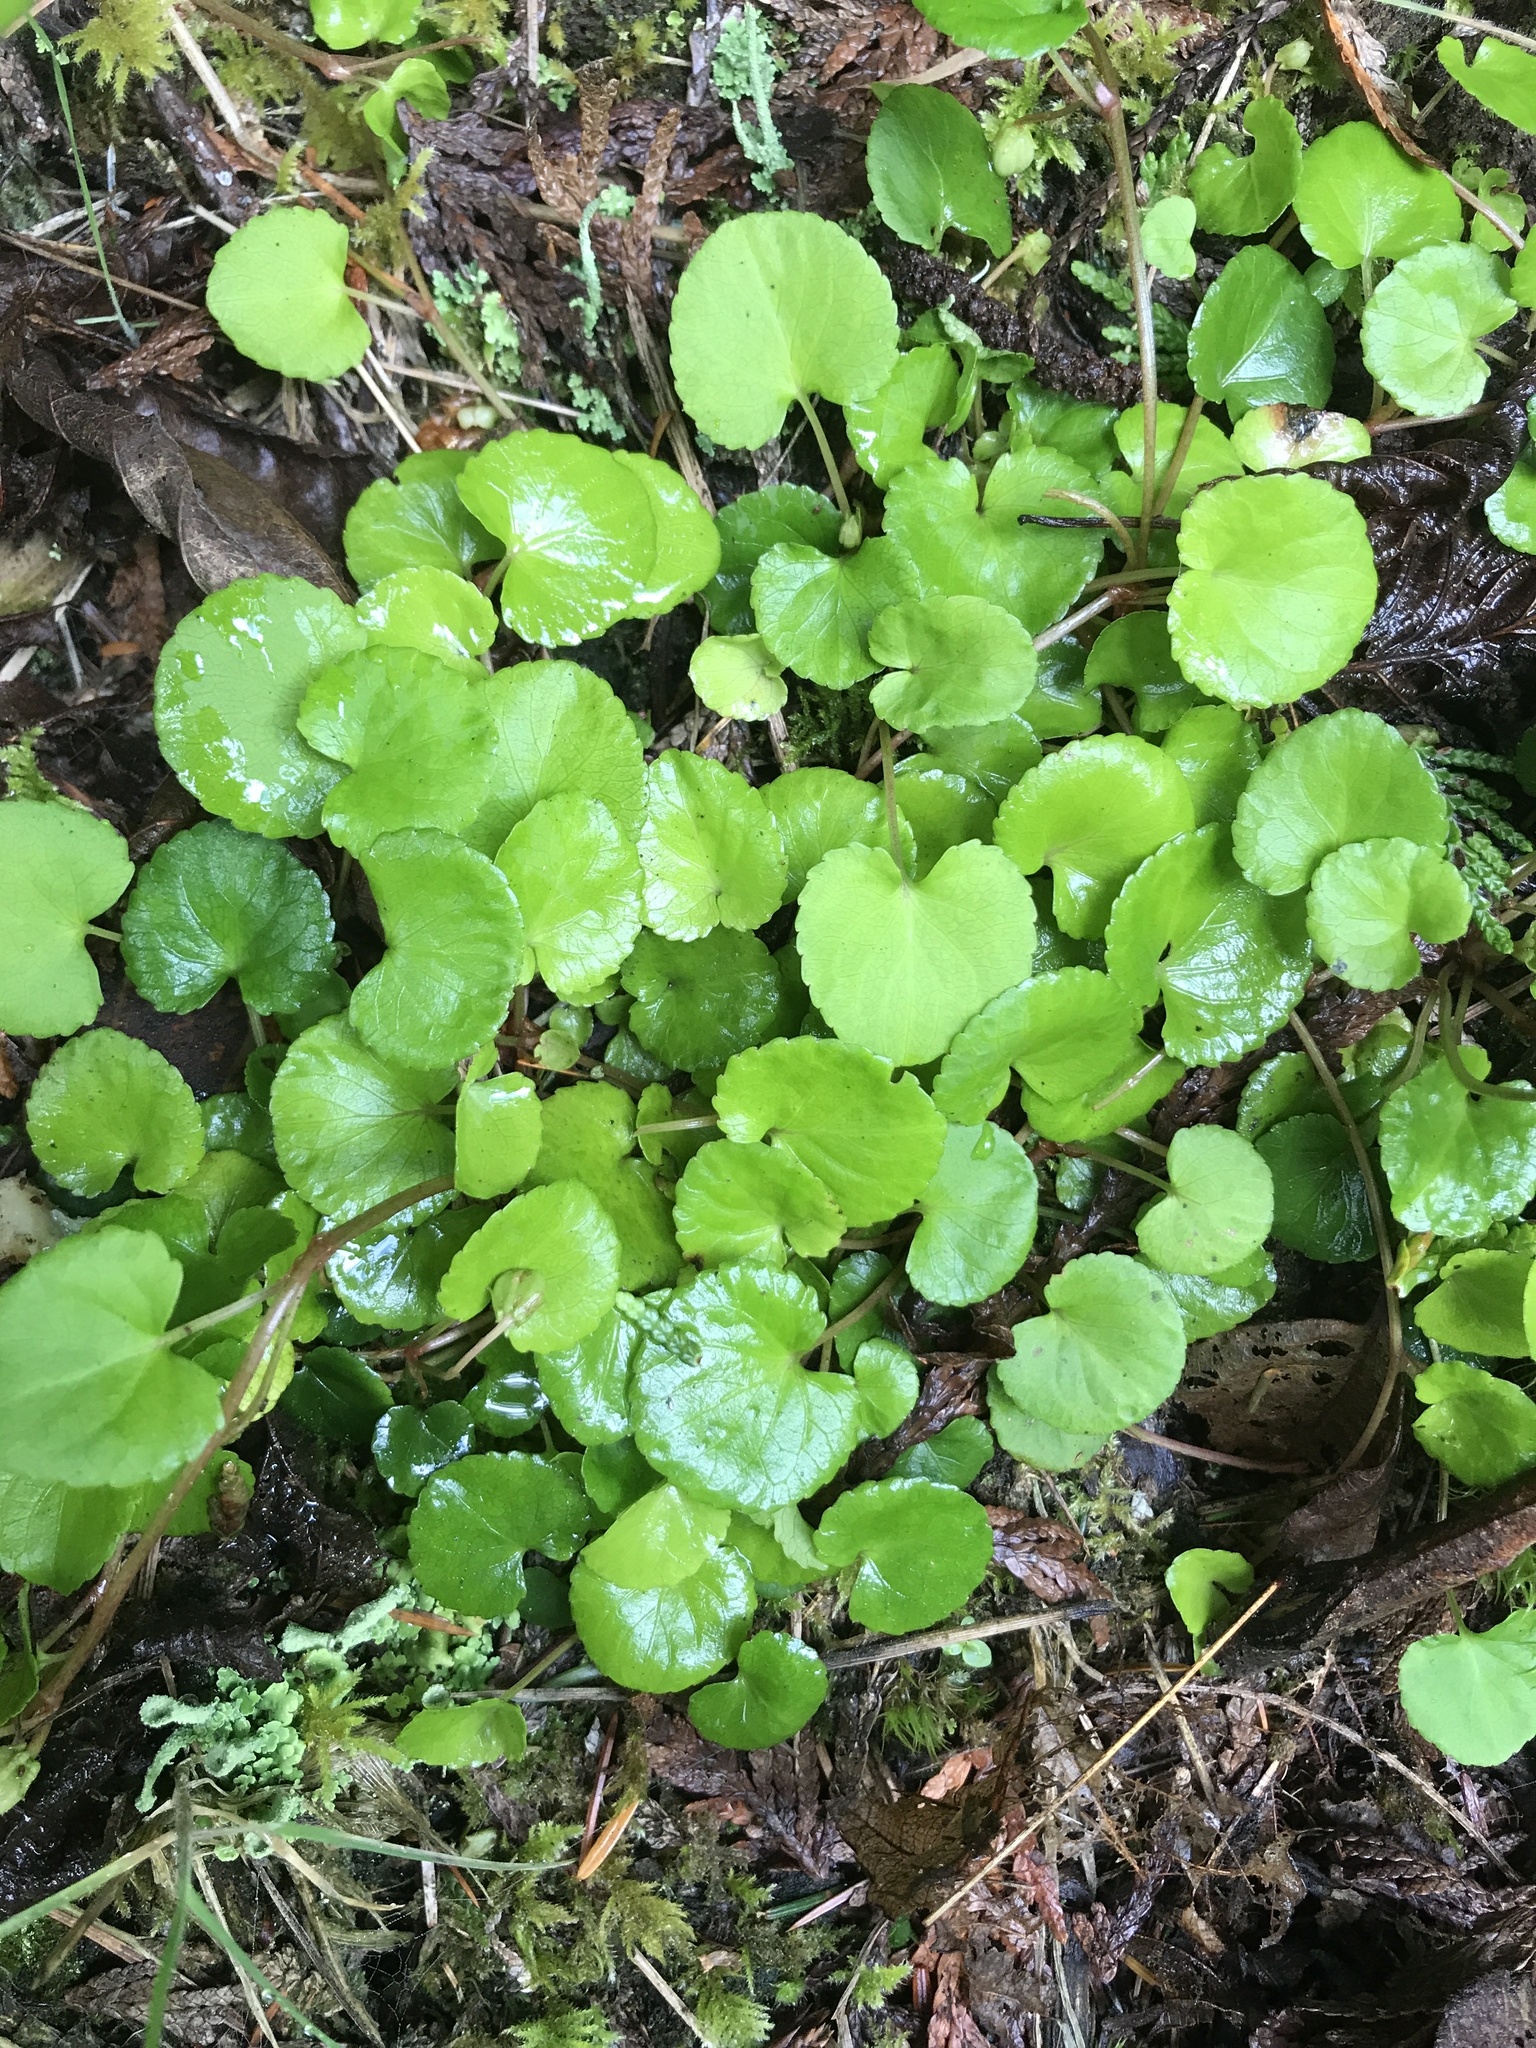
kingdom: Plantae
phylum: Tracheophyta
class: Magnoliopsida
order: Malpighiales
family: Violaceae
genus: Viola
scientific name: Viola sempervirens
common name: Evergreen violet
